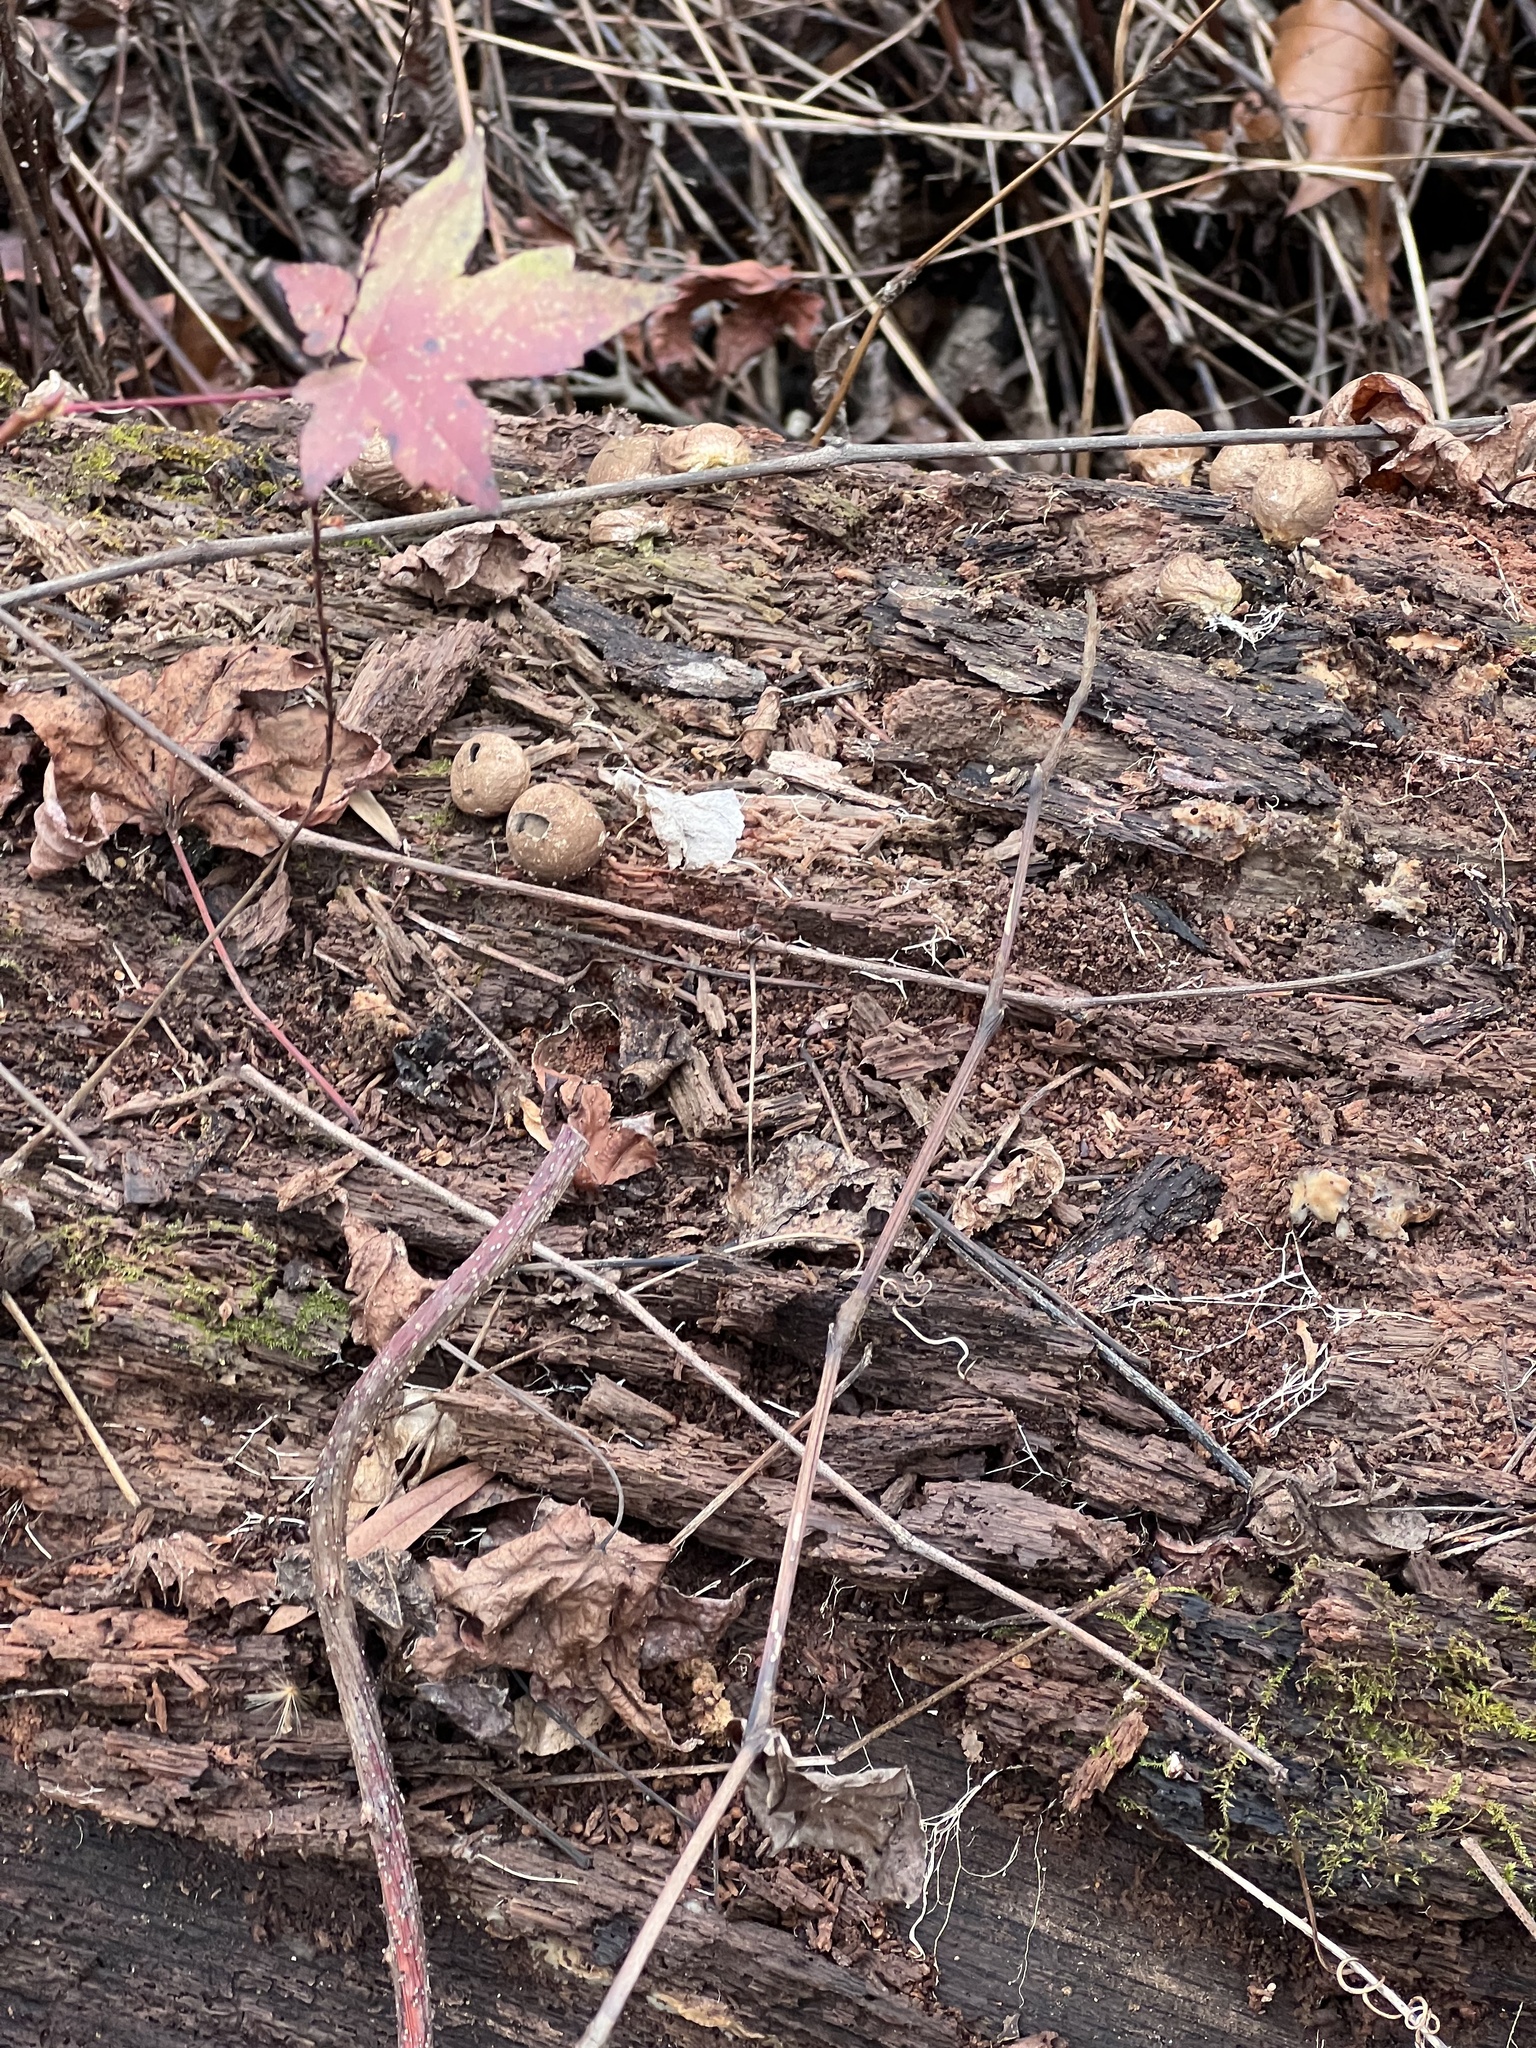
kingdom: Fungi
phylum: Basidiomycota
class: Agaricomycetes
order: Agaricales
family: Lycoperdaceae
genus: Apioperdon
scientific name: Apioperdon pyriforme
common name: Pear-shaped puffball
